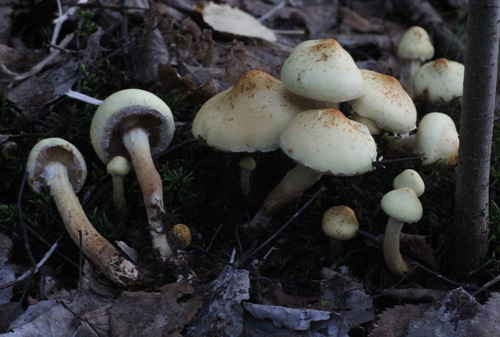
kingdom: Fungi
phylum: Basidiomycota
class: Agaricomycetes
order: Agaricales
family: Hymenogastraceae
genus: Flammula
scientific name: Flammula alnicola
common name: Alder scalycap
